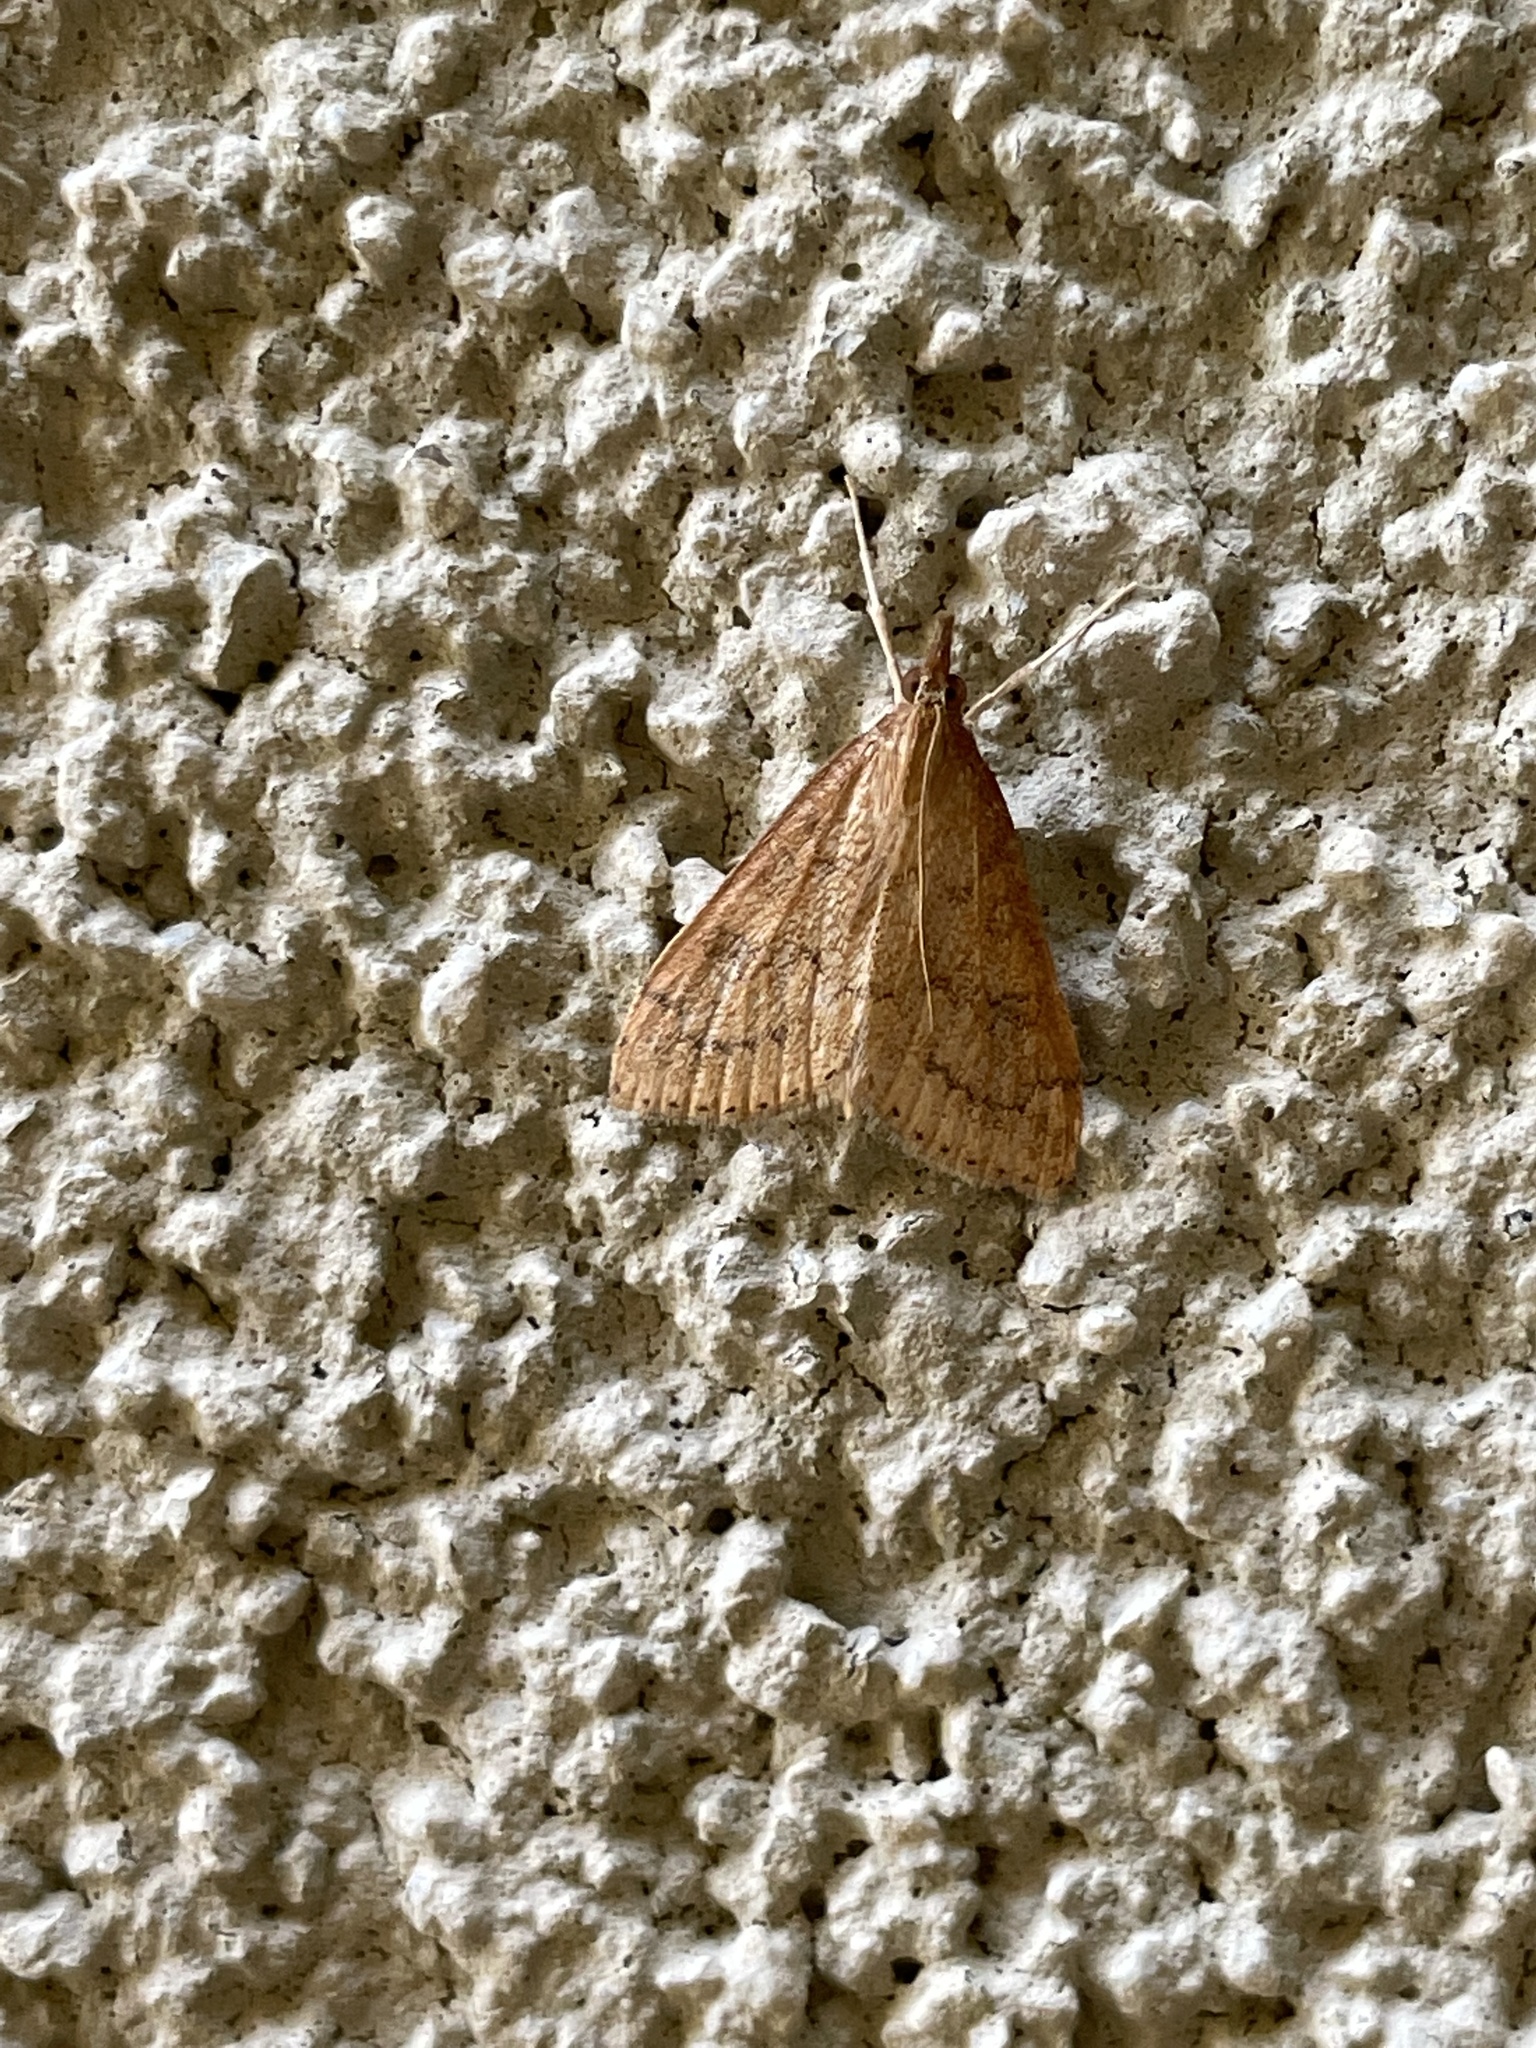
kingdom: Animalia
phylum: Arthropoda
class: Insecta
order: Lepidoptera
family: Crambidae
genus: Udea
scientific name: Udea rubigalis
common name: Celery leaftier moth
